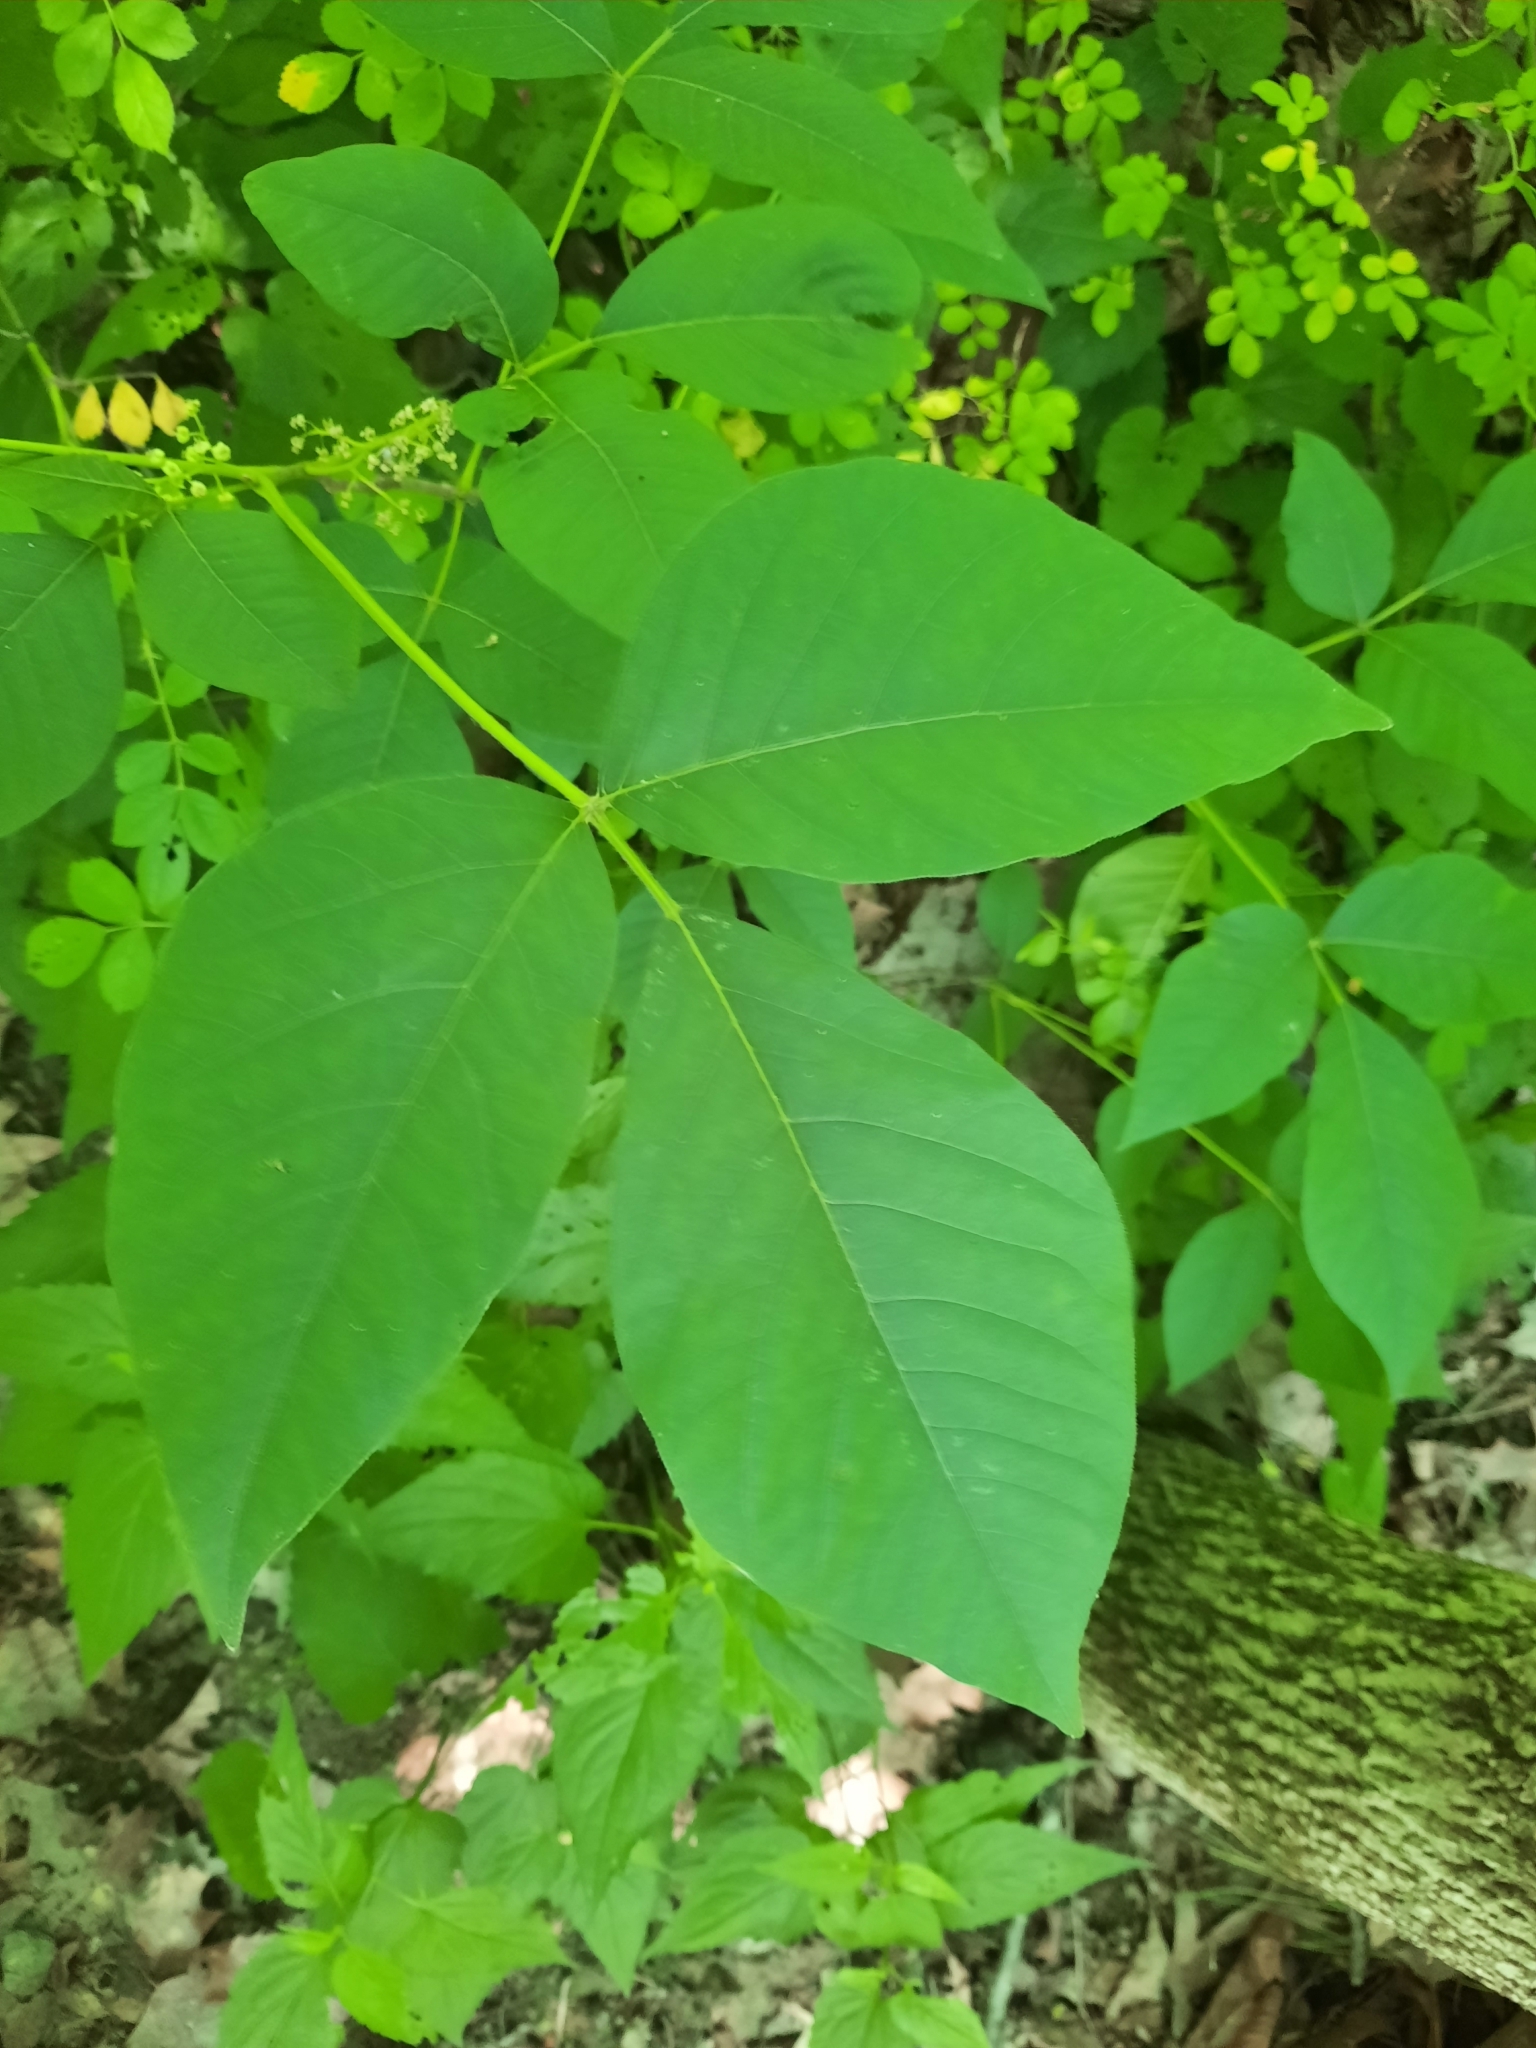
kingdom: Plantae
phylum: Tracheophyta
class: Magnoliopsida
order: Sapindales
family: Anacardiaceae
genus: Toxicodendron
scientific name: Toxicodendron radicans
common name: Poison ivy
